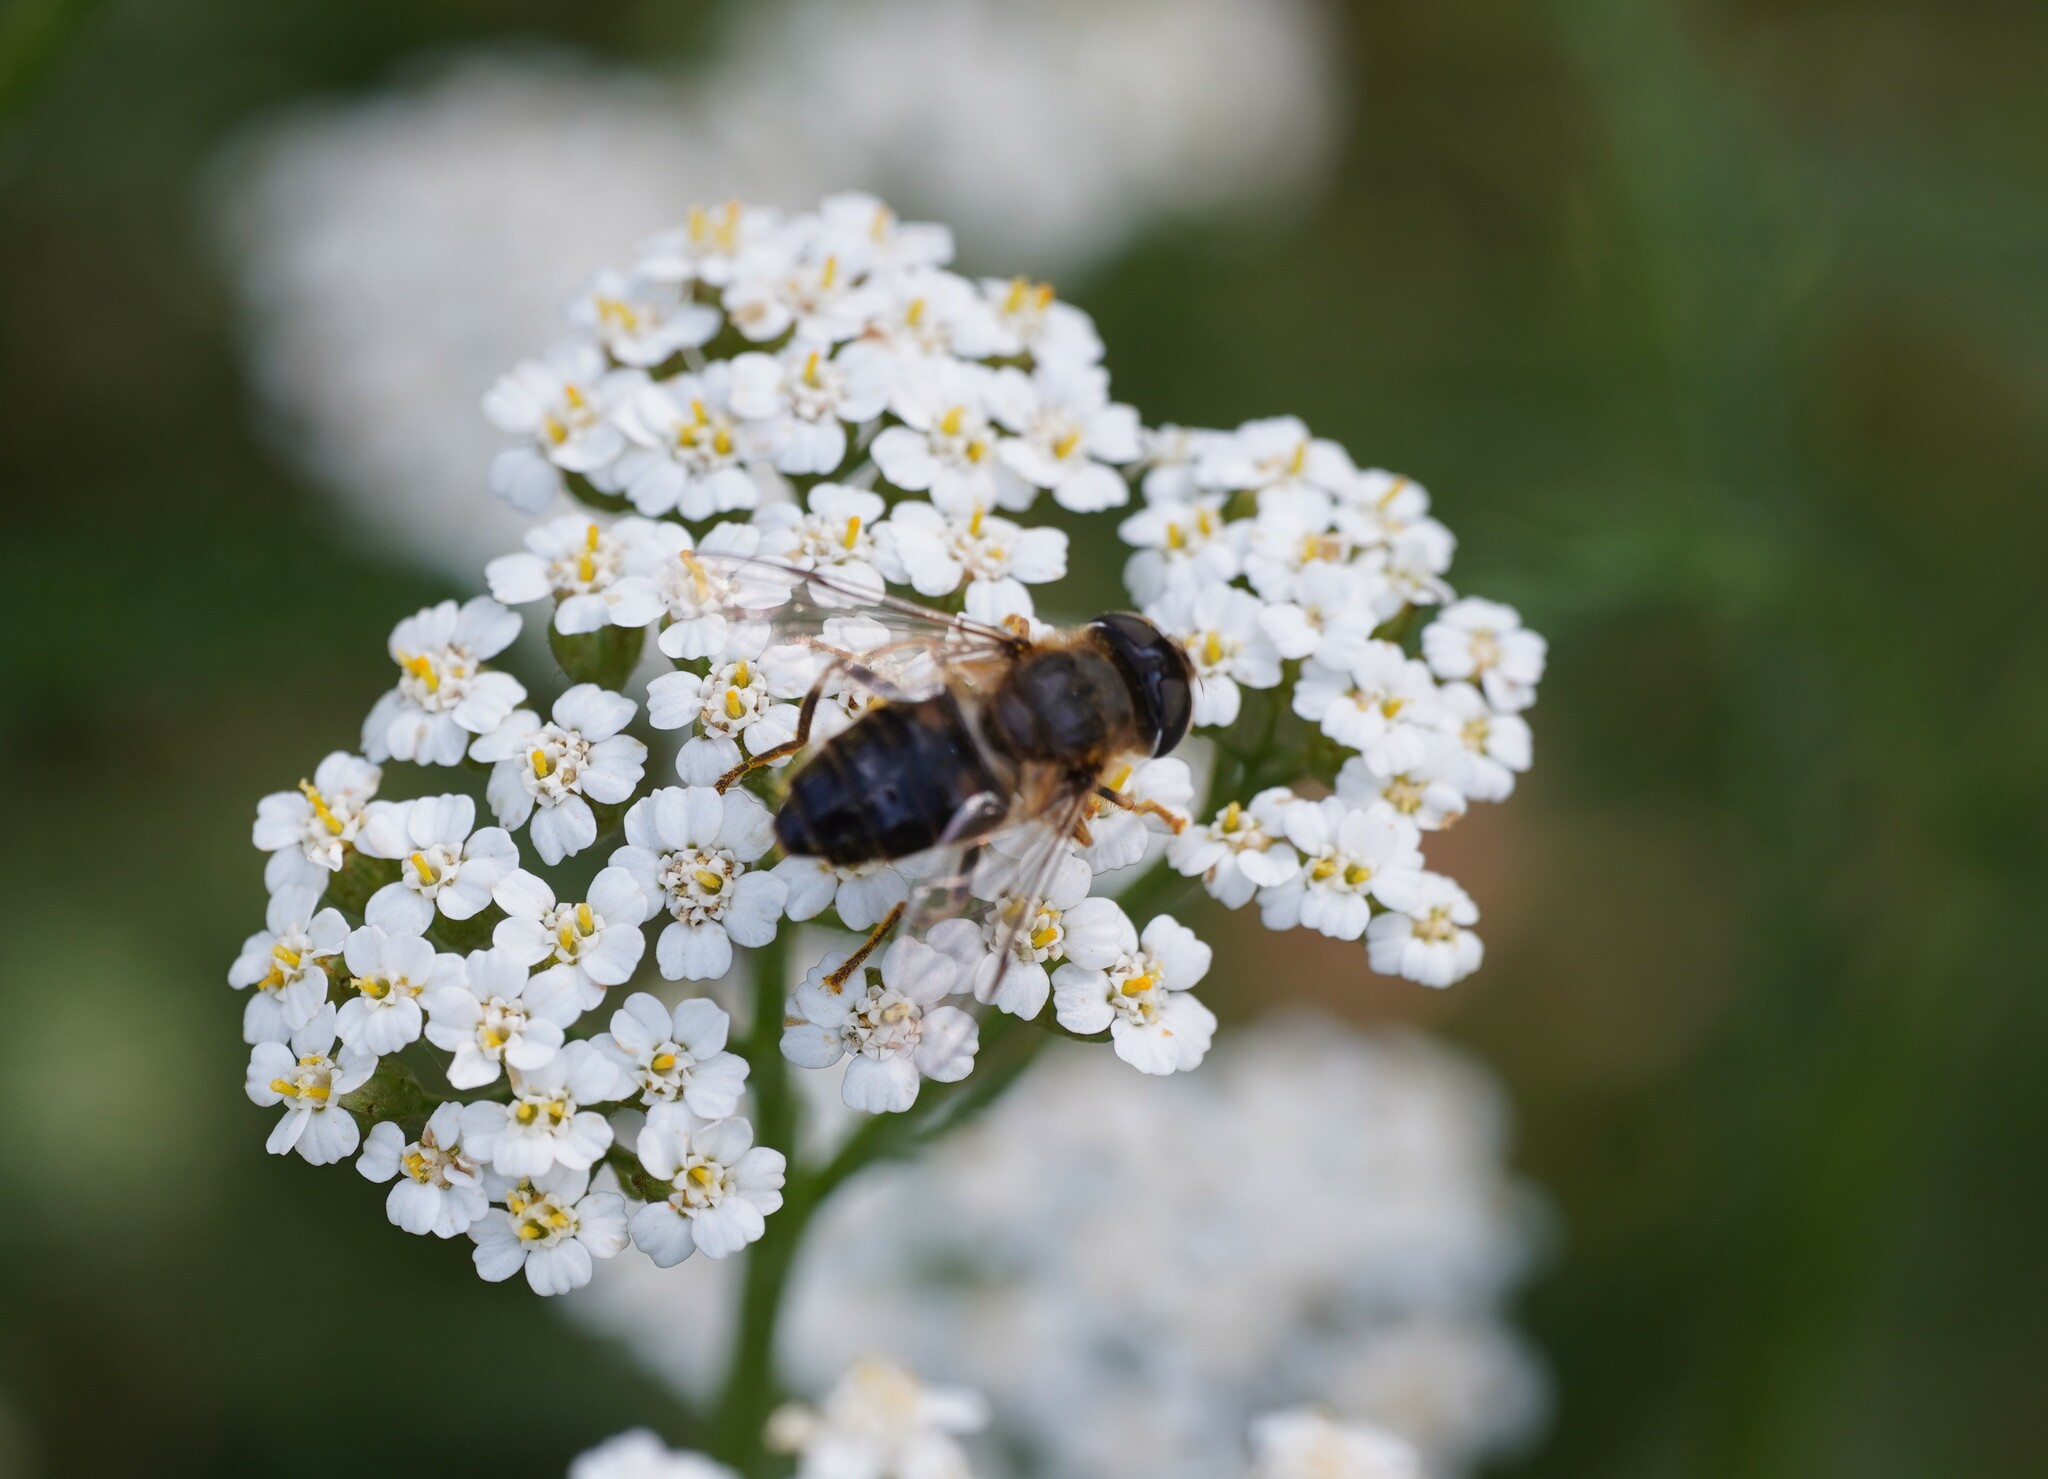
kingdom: Animalia
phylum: Arthropoda
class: Insecta
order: Diptera
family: Syrphidae
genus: Eristalis
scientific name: Eristalis pertinax
